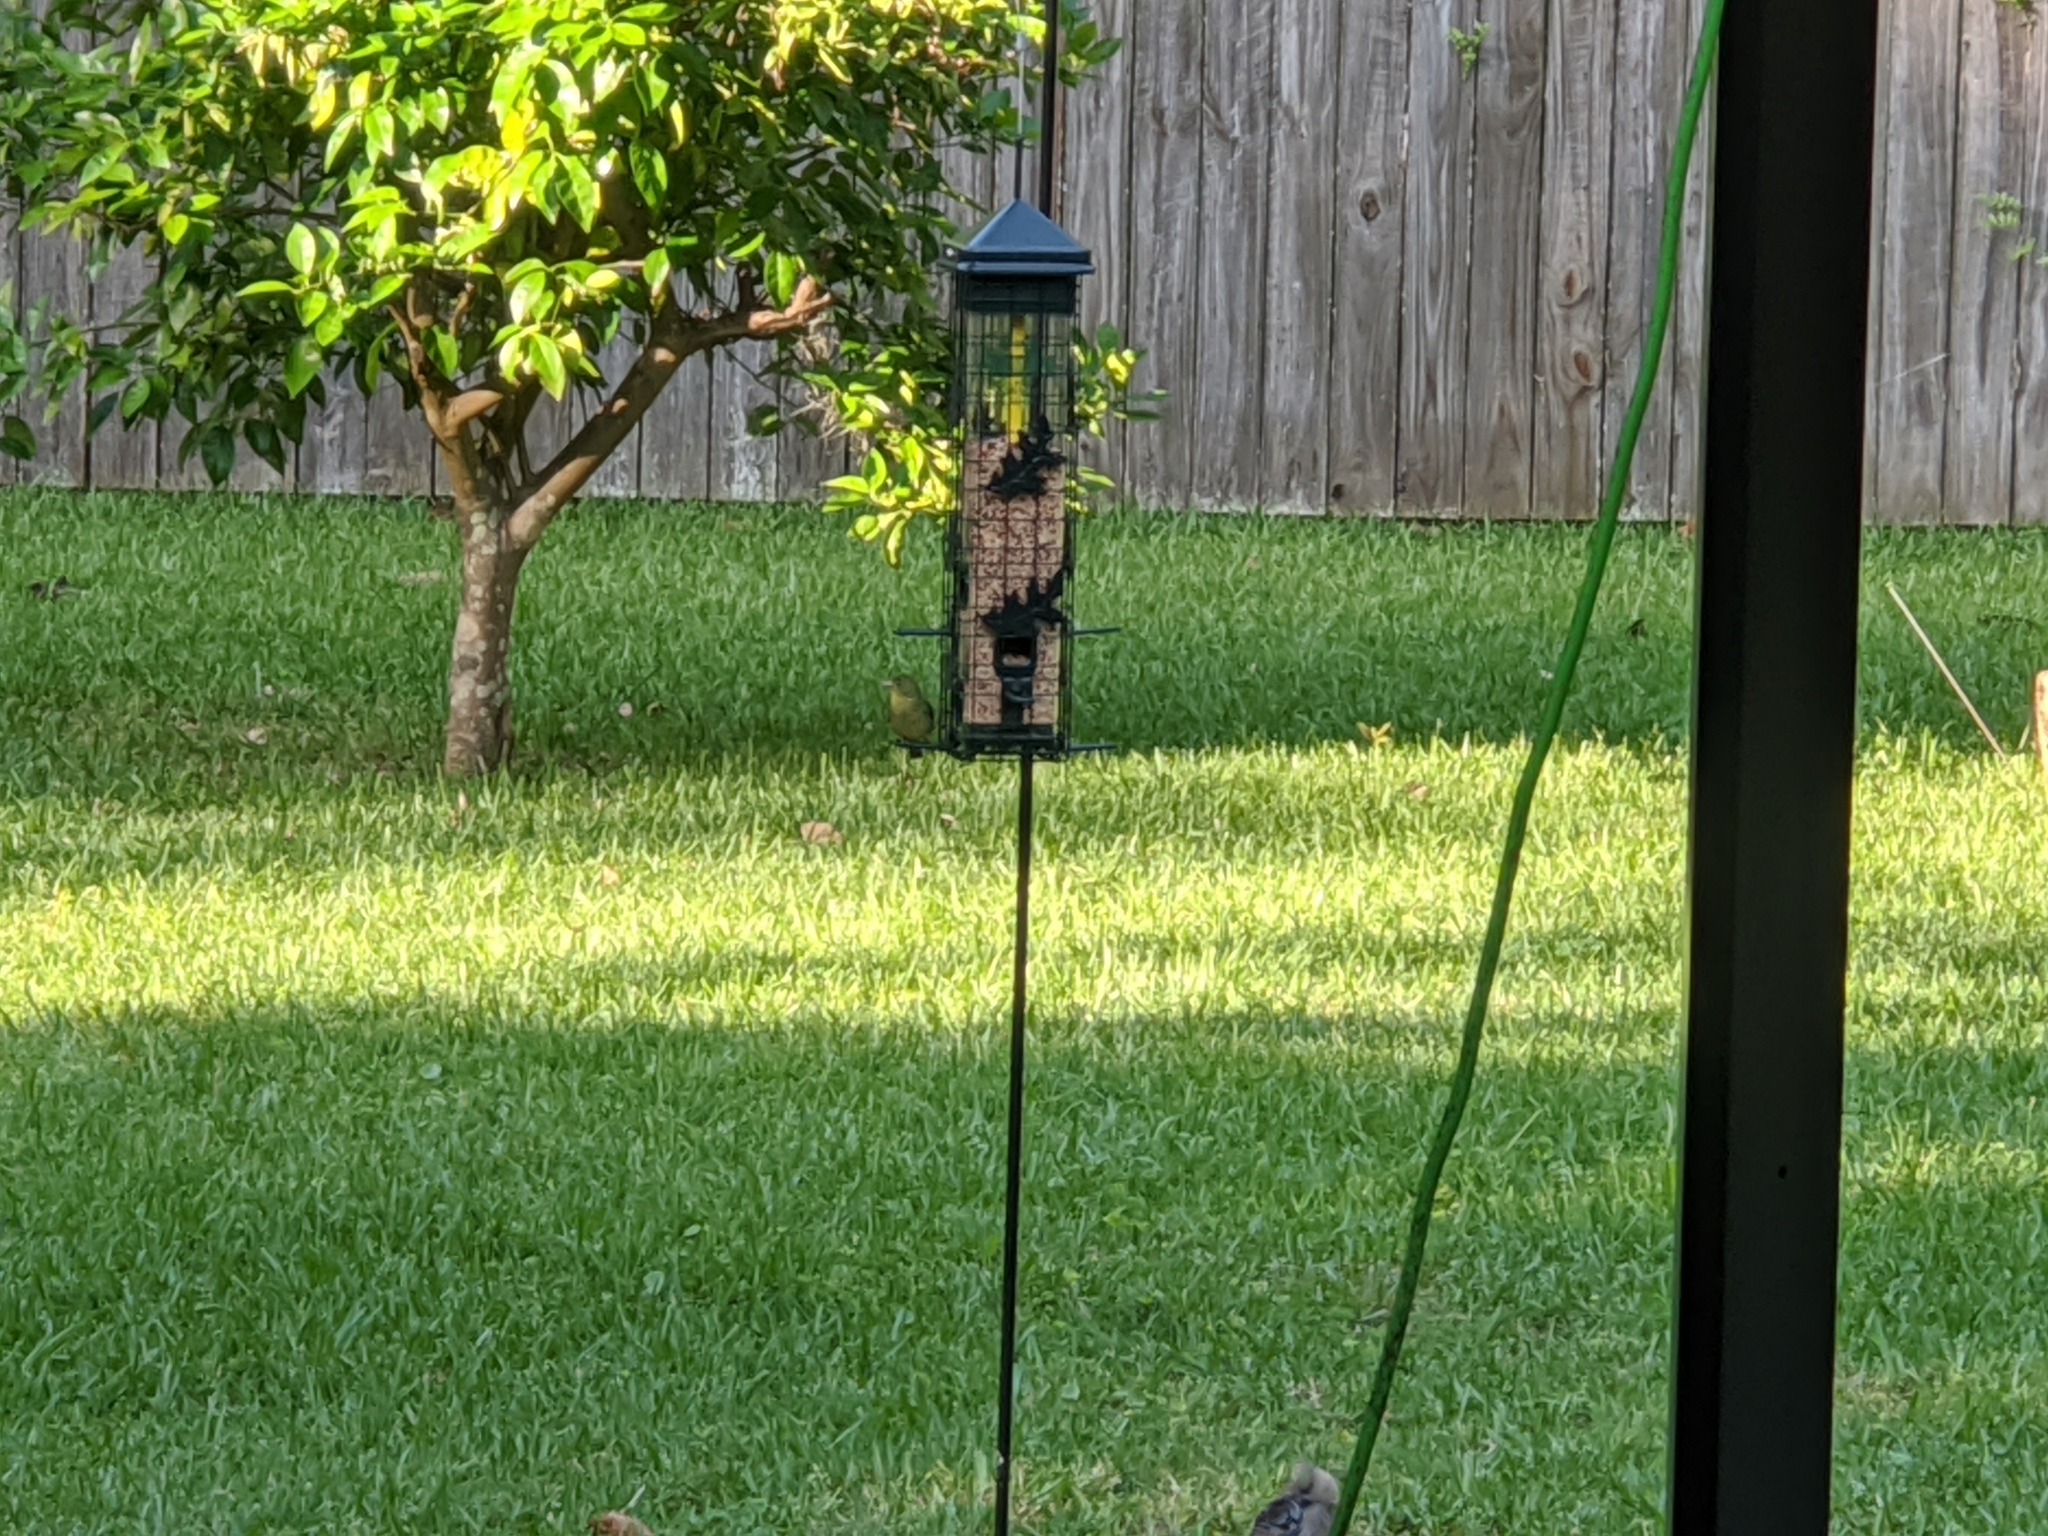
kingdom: Animalia
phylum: Chordata
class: Aves
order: Passeriformes
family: Cardinalidae
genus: Passerina
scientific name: Passerina ciris
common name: Painted bunting
